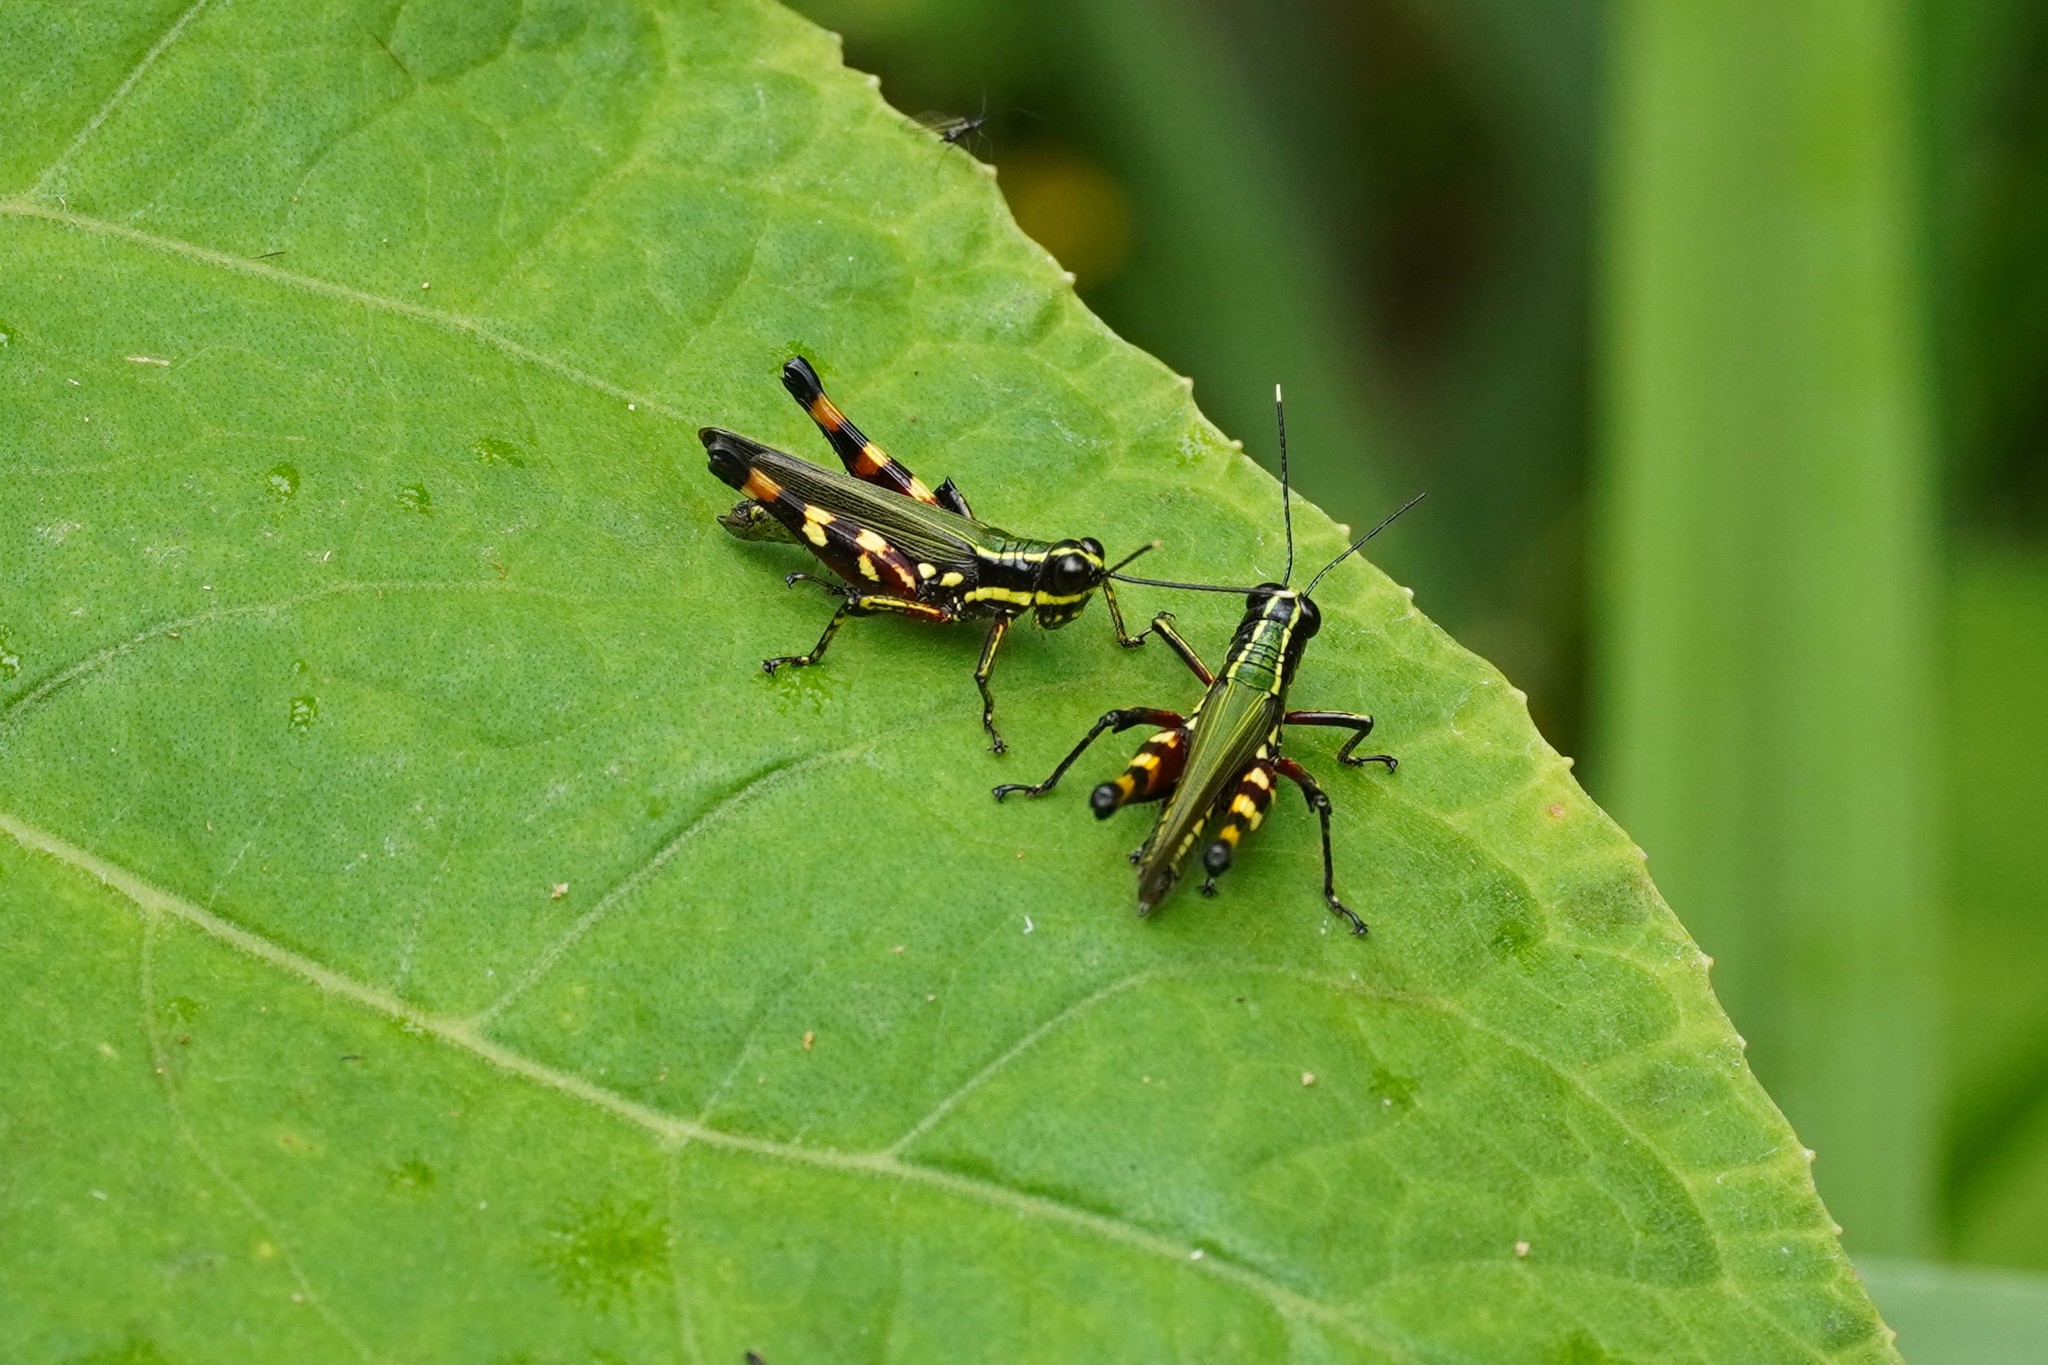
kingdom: Animalia
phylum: Arthropoda
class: Insecta
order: Orthoptera
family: Acrididae
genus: Tetrataenia
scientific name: Tetrataenia surinama
